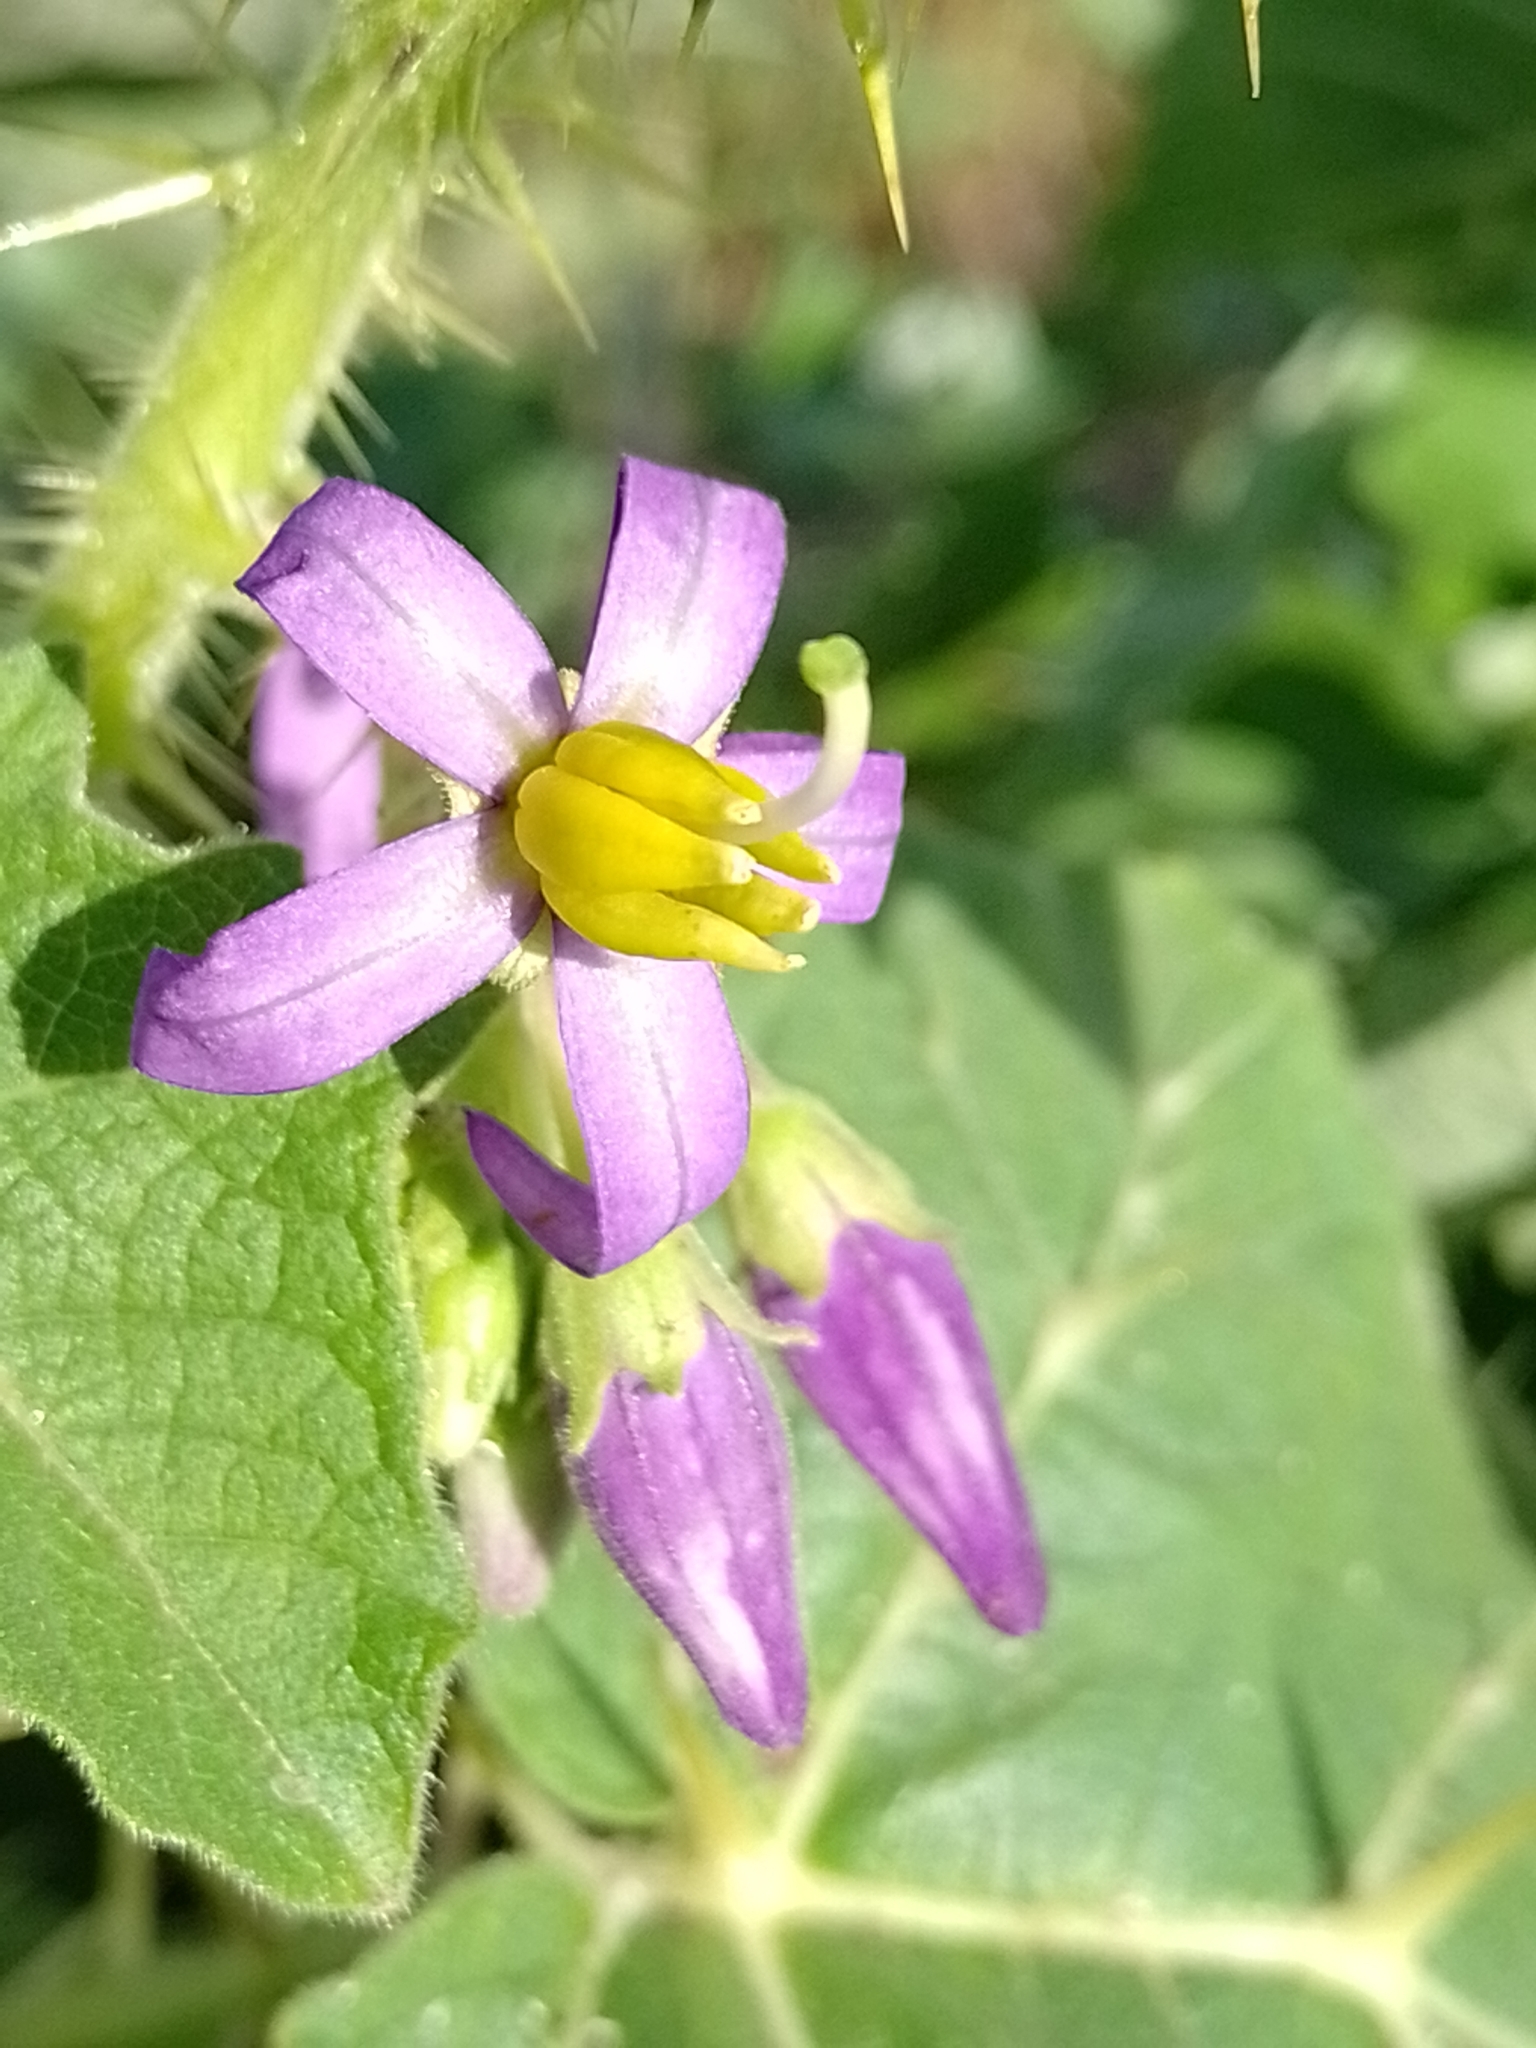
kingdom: Plantae
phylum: Tracheophyta
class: Magnoliopsida
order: Solanales
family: Solanaceae
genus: Solanum
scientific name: Solanum palinacanthum
